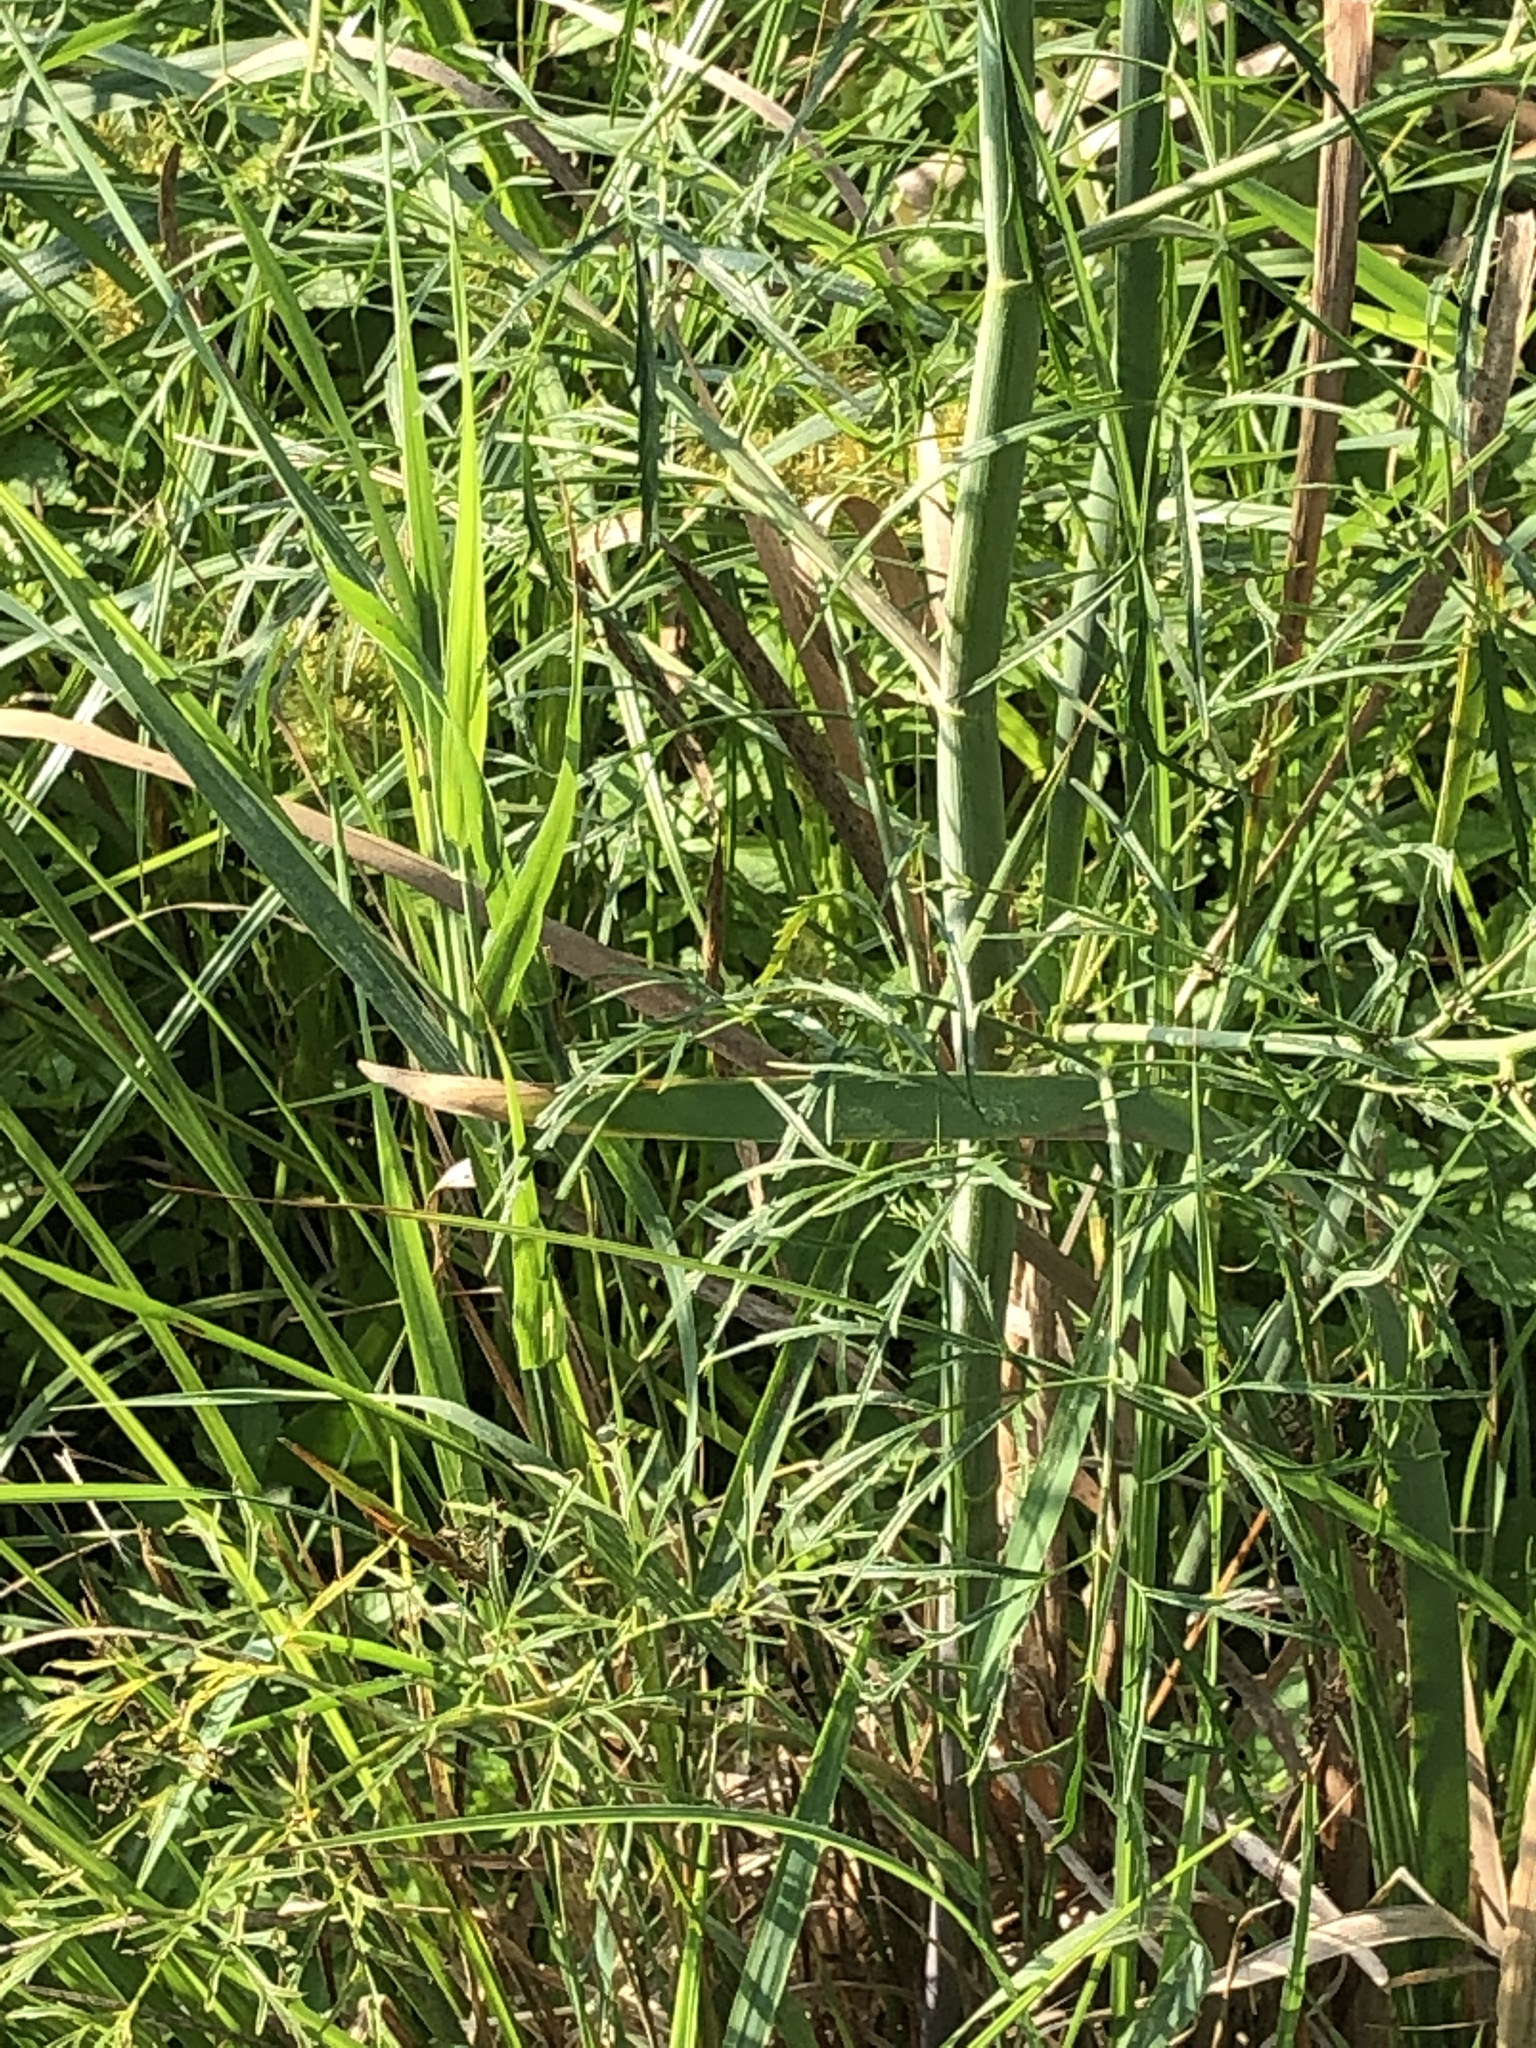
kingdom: Plantae
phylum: Tracheophyta
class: Magnoliopsida
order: Apiales
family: Apiaceae
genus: Cicuta
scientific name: Cicuta bulbifera
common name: Bulb-bearing water-hemlock
